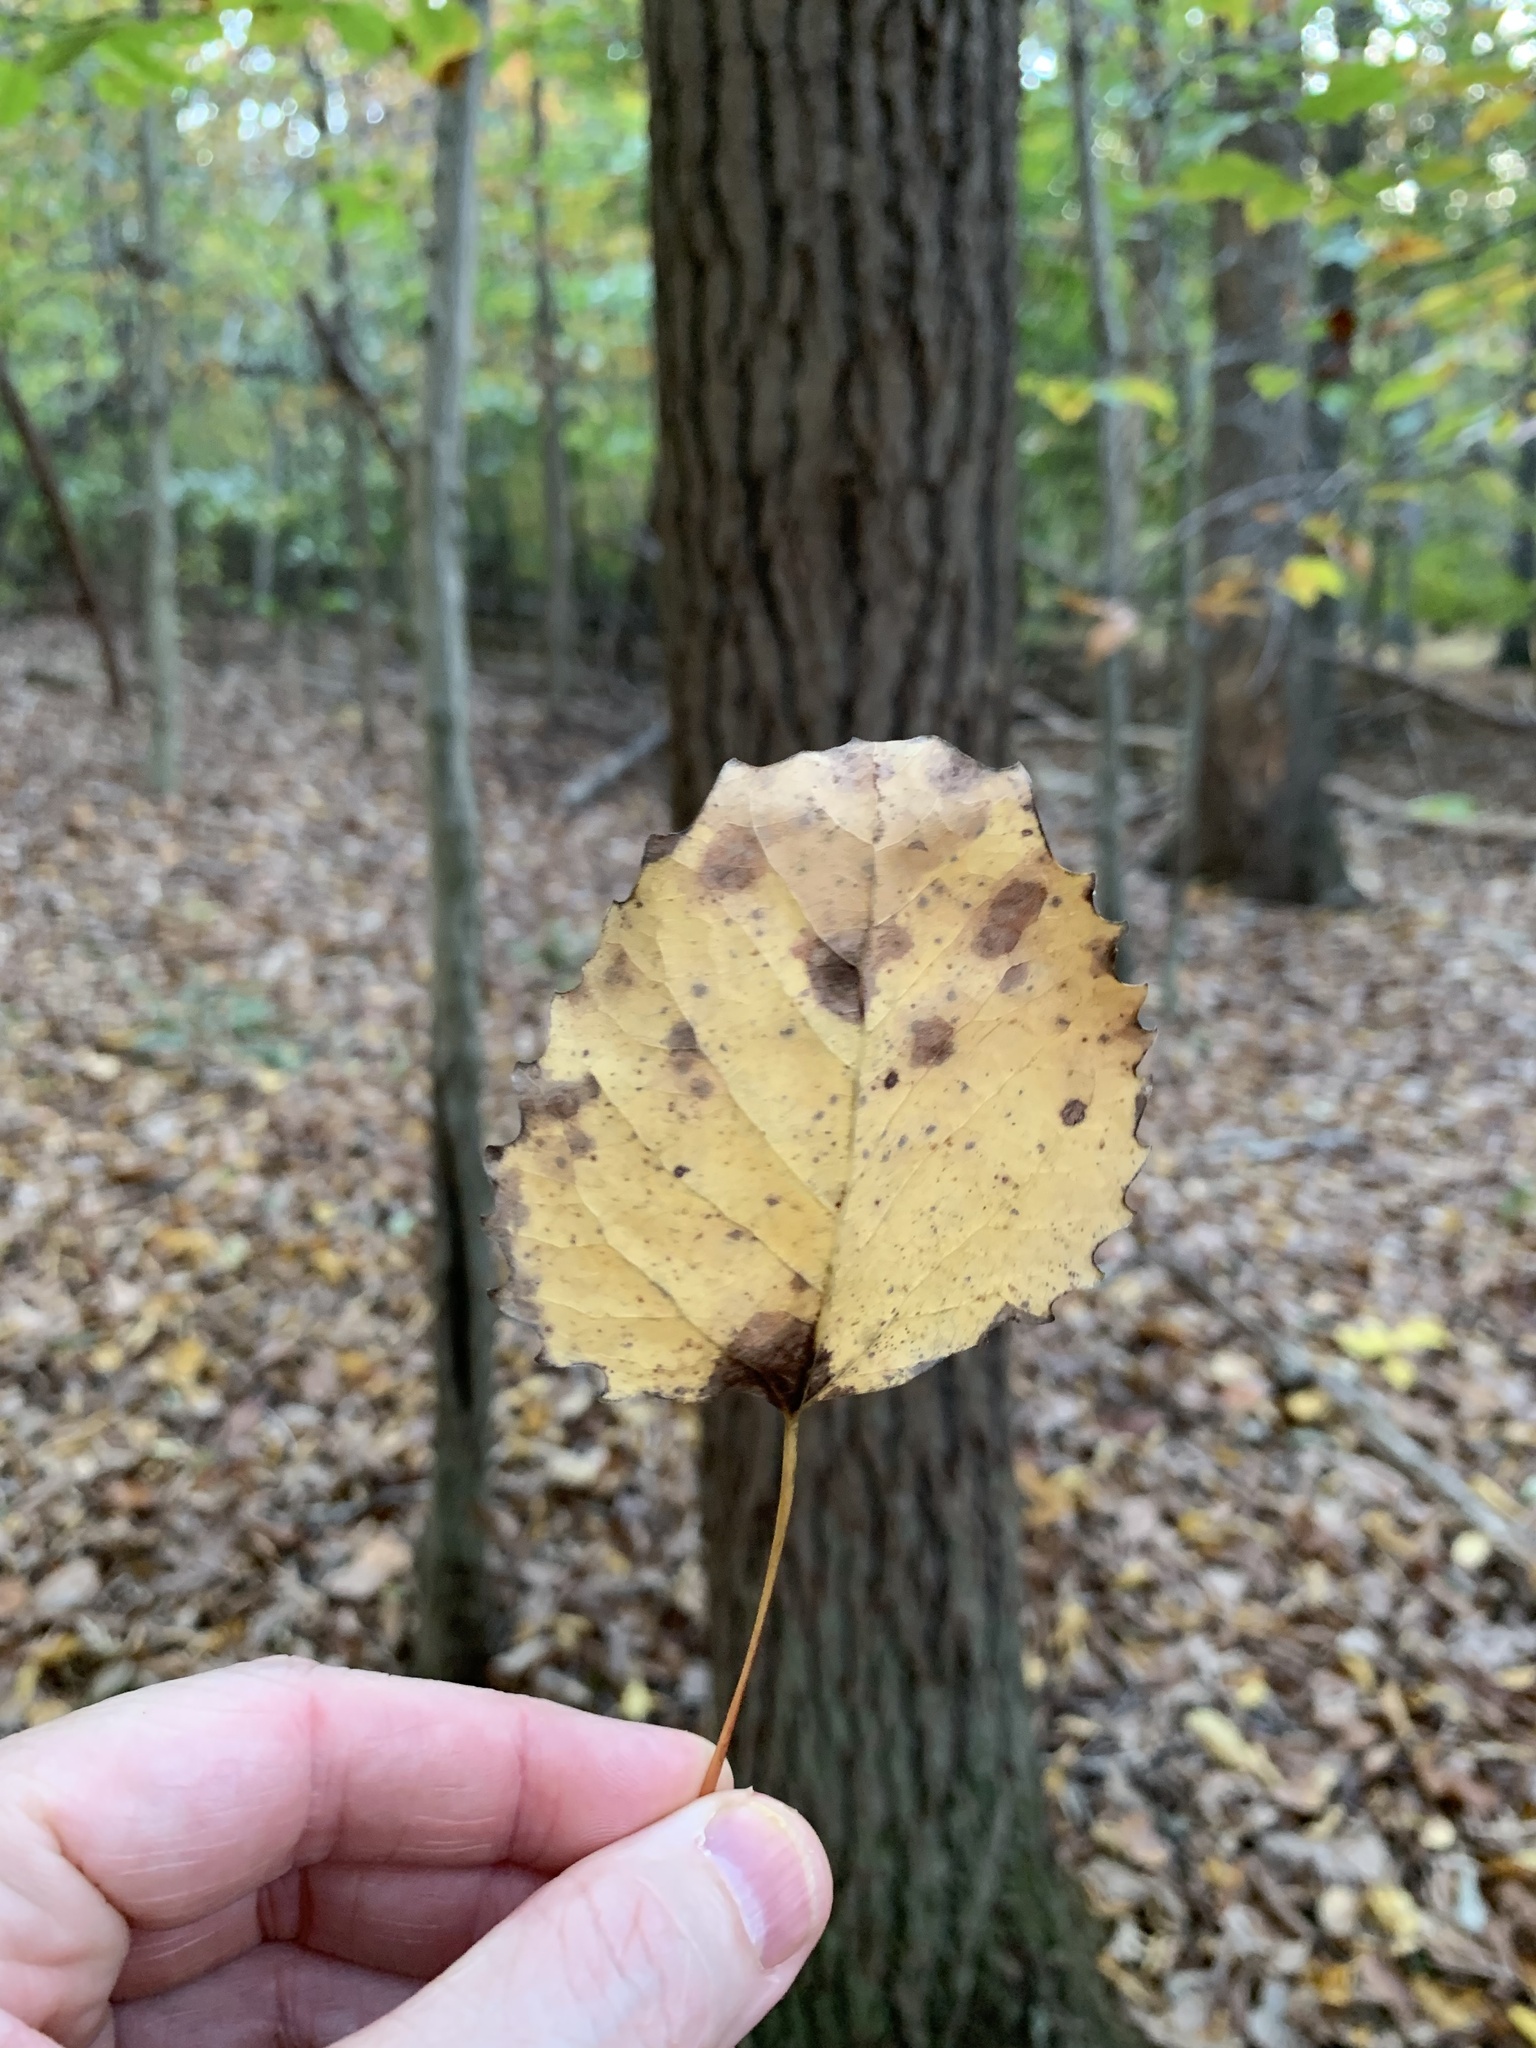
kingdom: Plantae
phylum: Tracheophyta
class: Magnoliopsida
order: Malpighiales
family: Salicaceae
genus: Populus
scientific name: Populus grandidentata
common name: Bigtooth aspen
